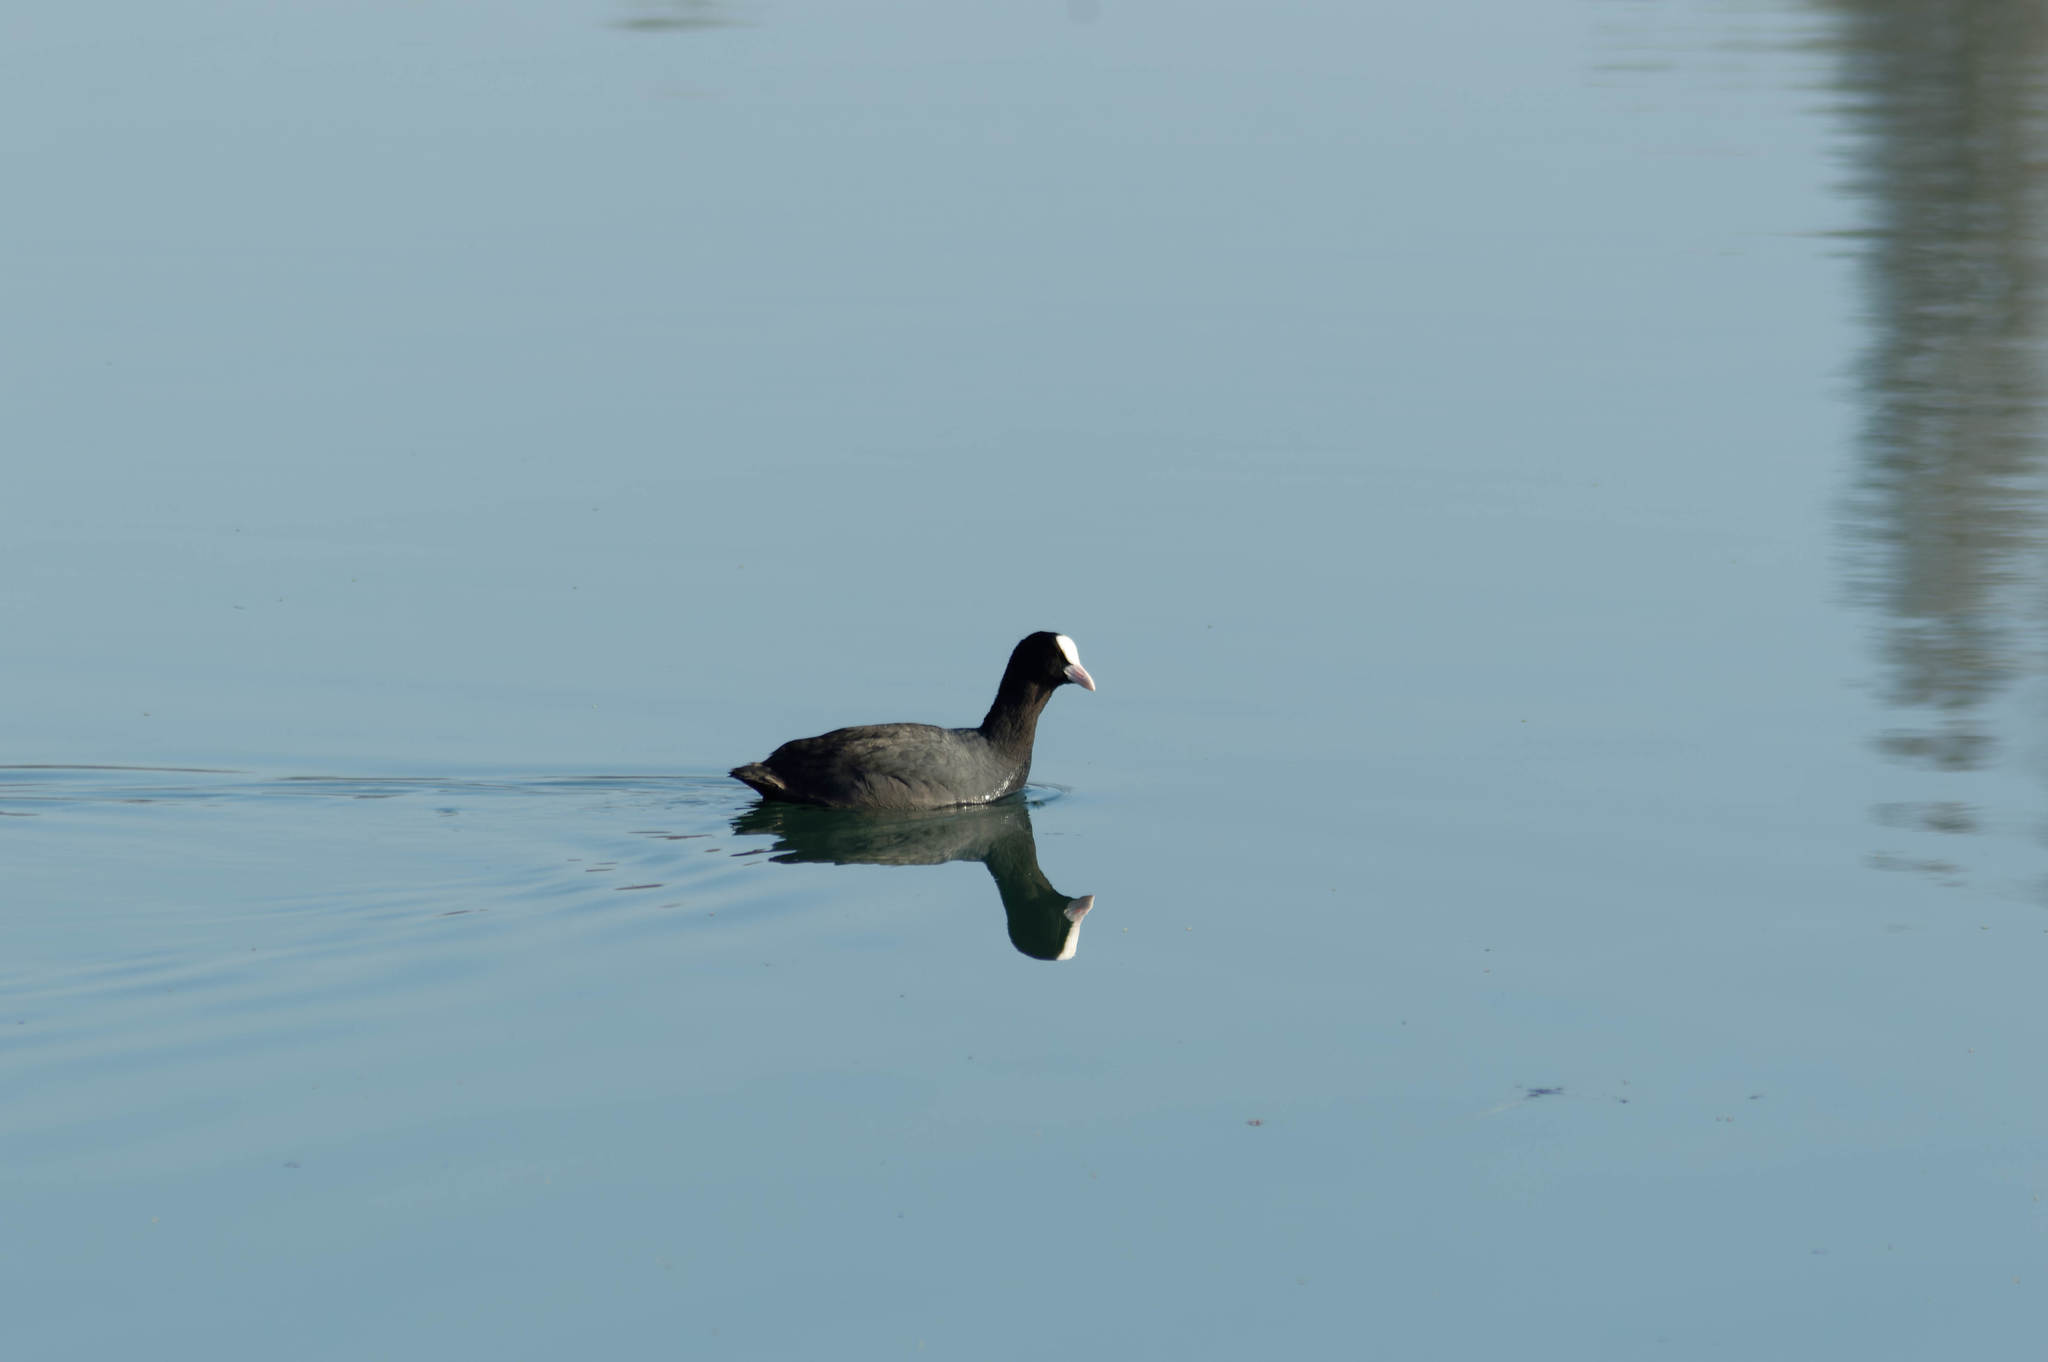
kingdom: Animalia
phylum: Chordata
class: Aves
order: Gruiformes
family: Rallidae
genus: Fulica
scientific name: Fulica atra
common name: Eurasian coot
